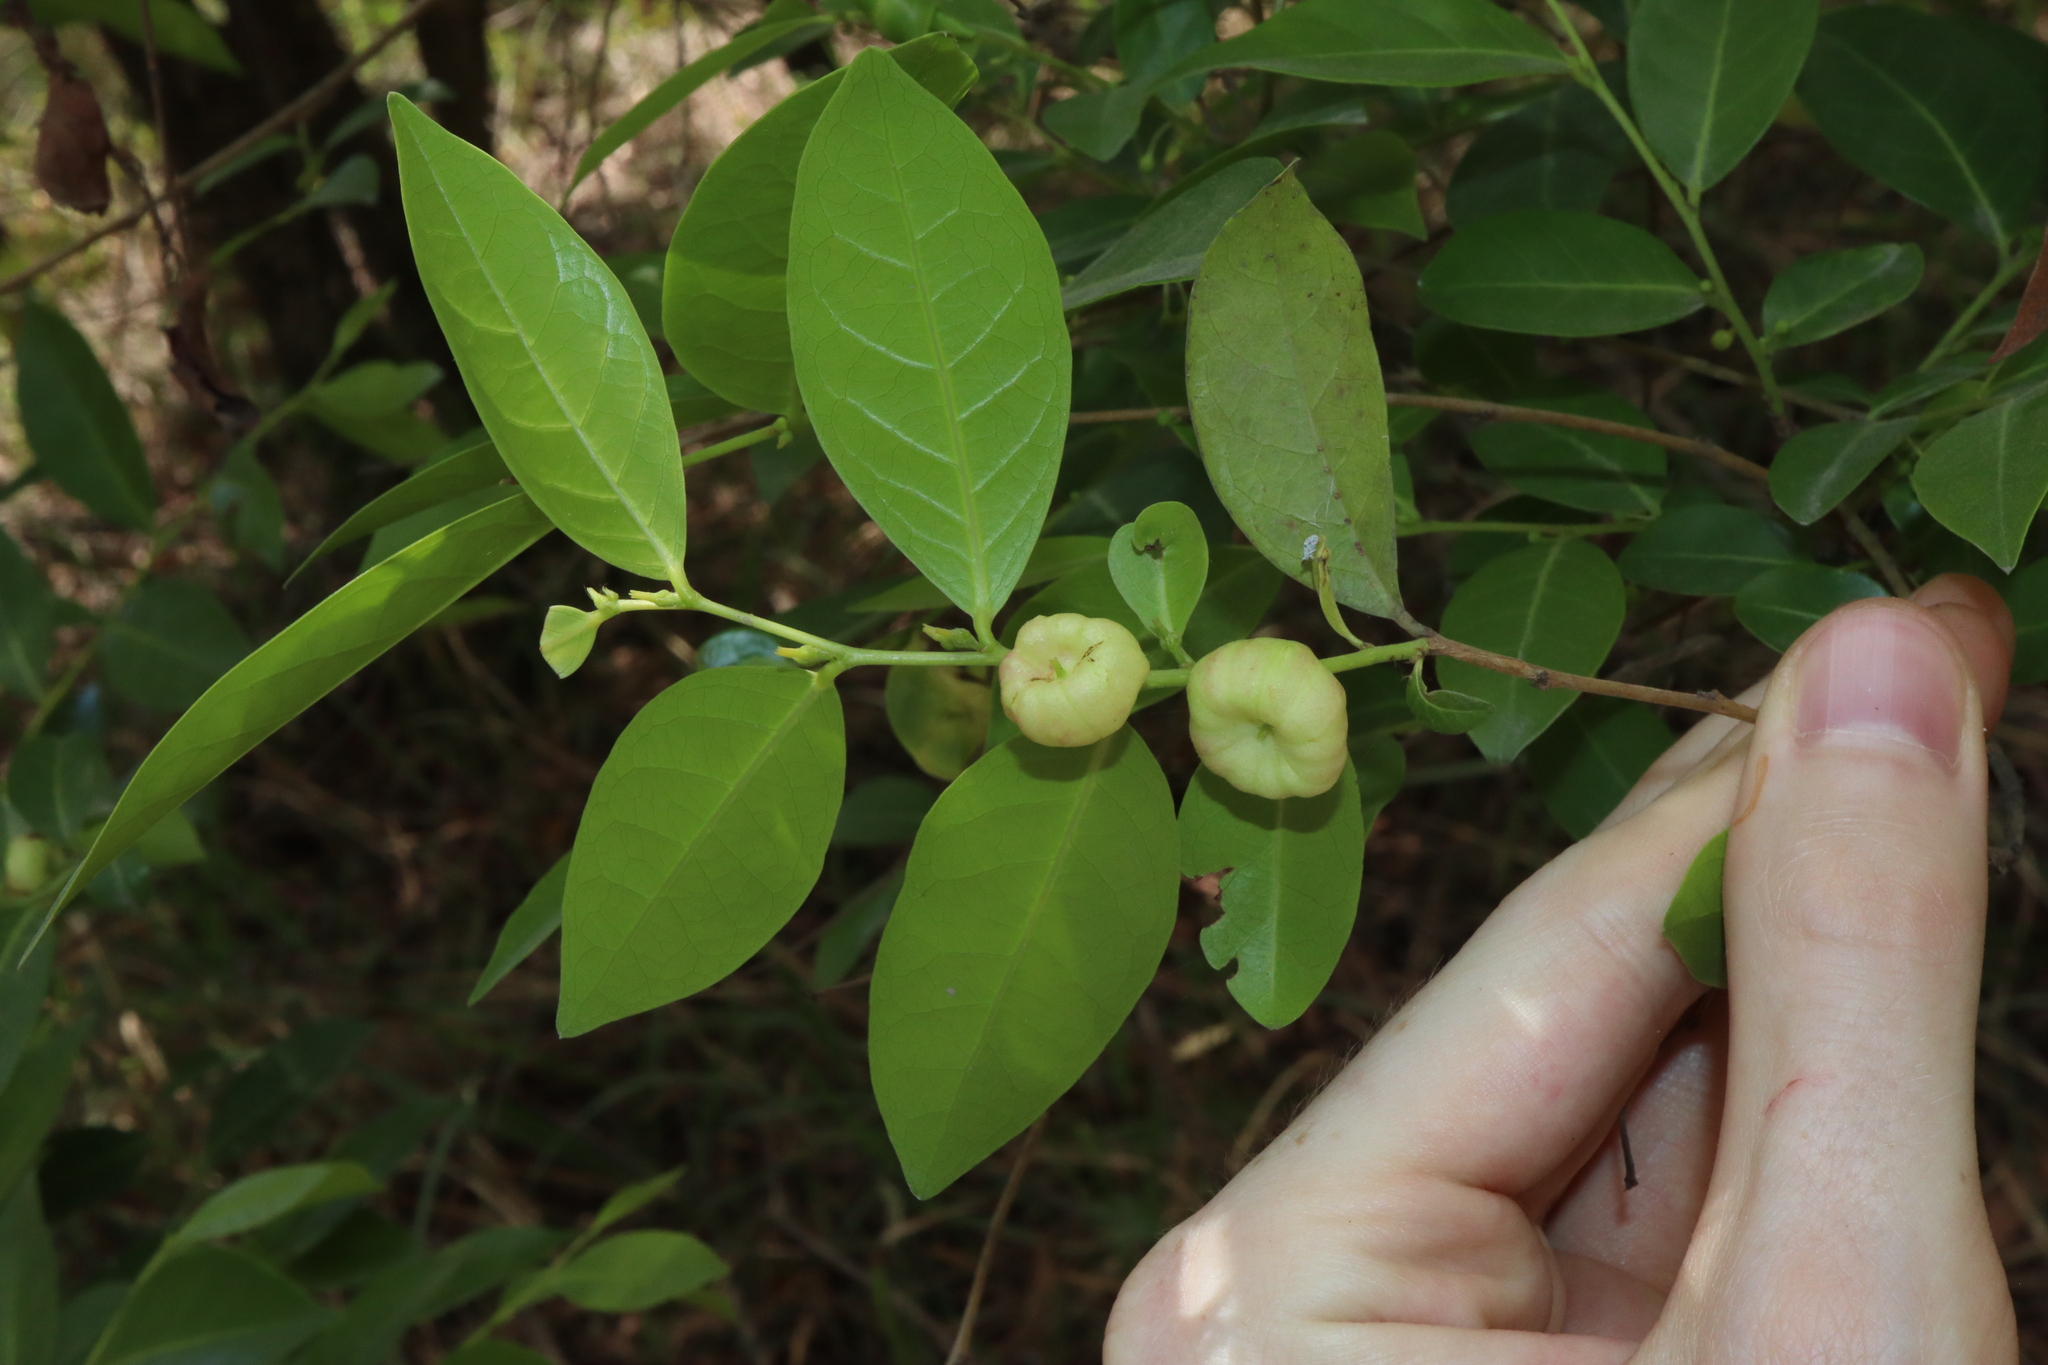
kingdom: Plantae
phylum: Tracheophyta
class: Magnoliopsida
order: Malpighiales
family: Phyllanthaceae
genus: Glochidion
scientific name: Glochidion ferdinandi
